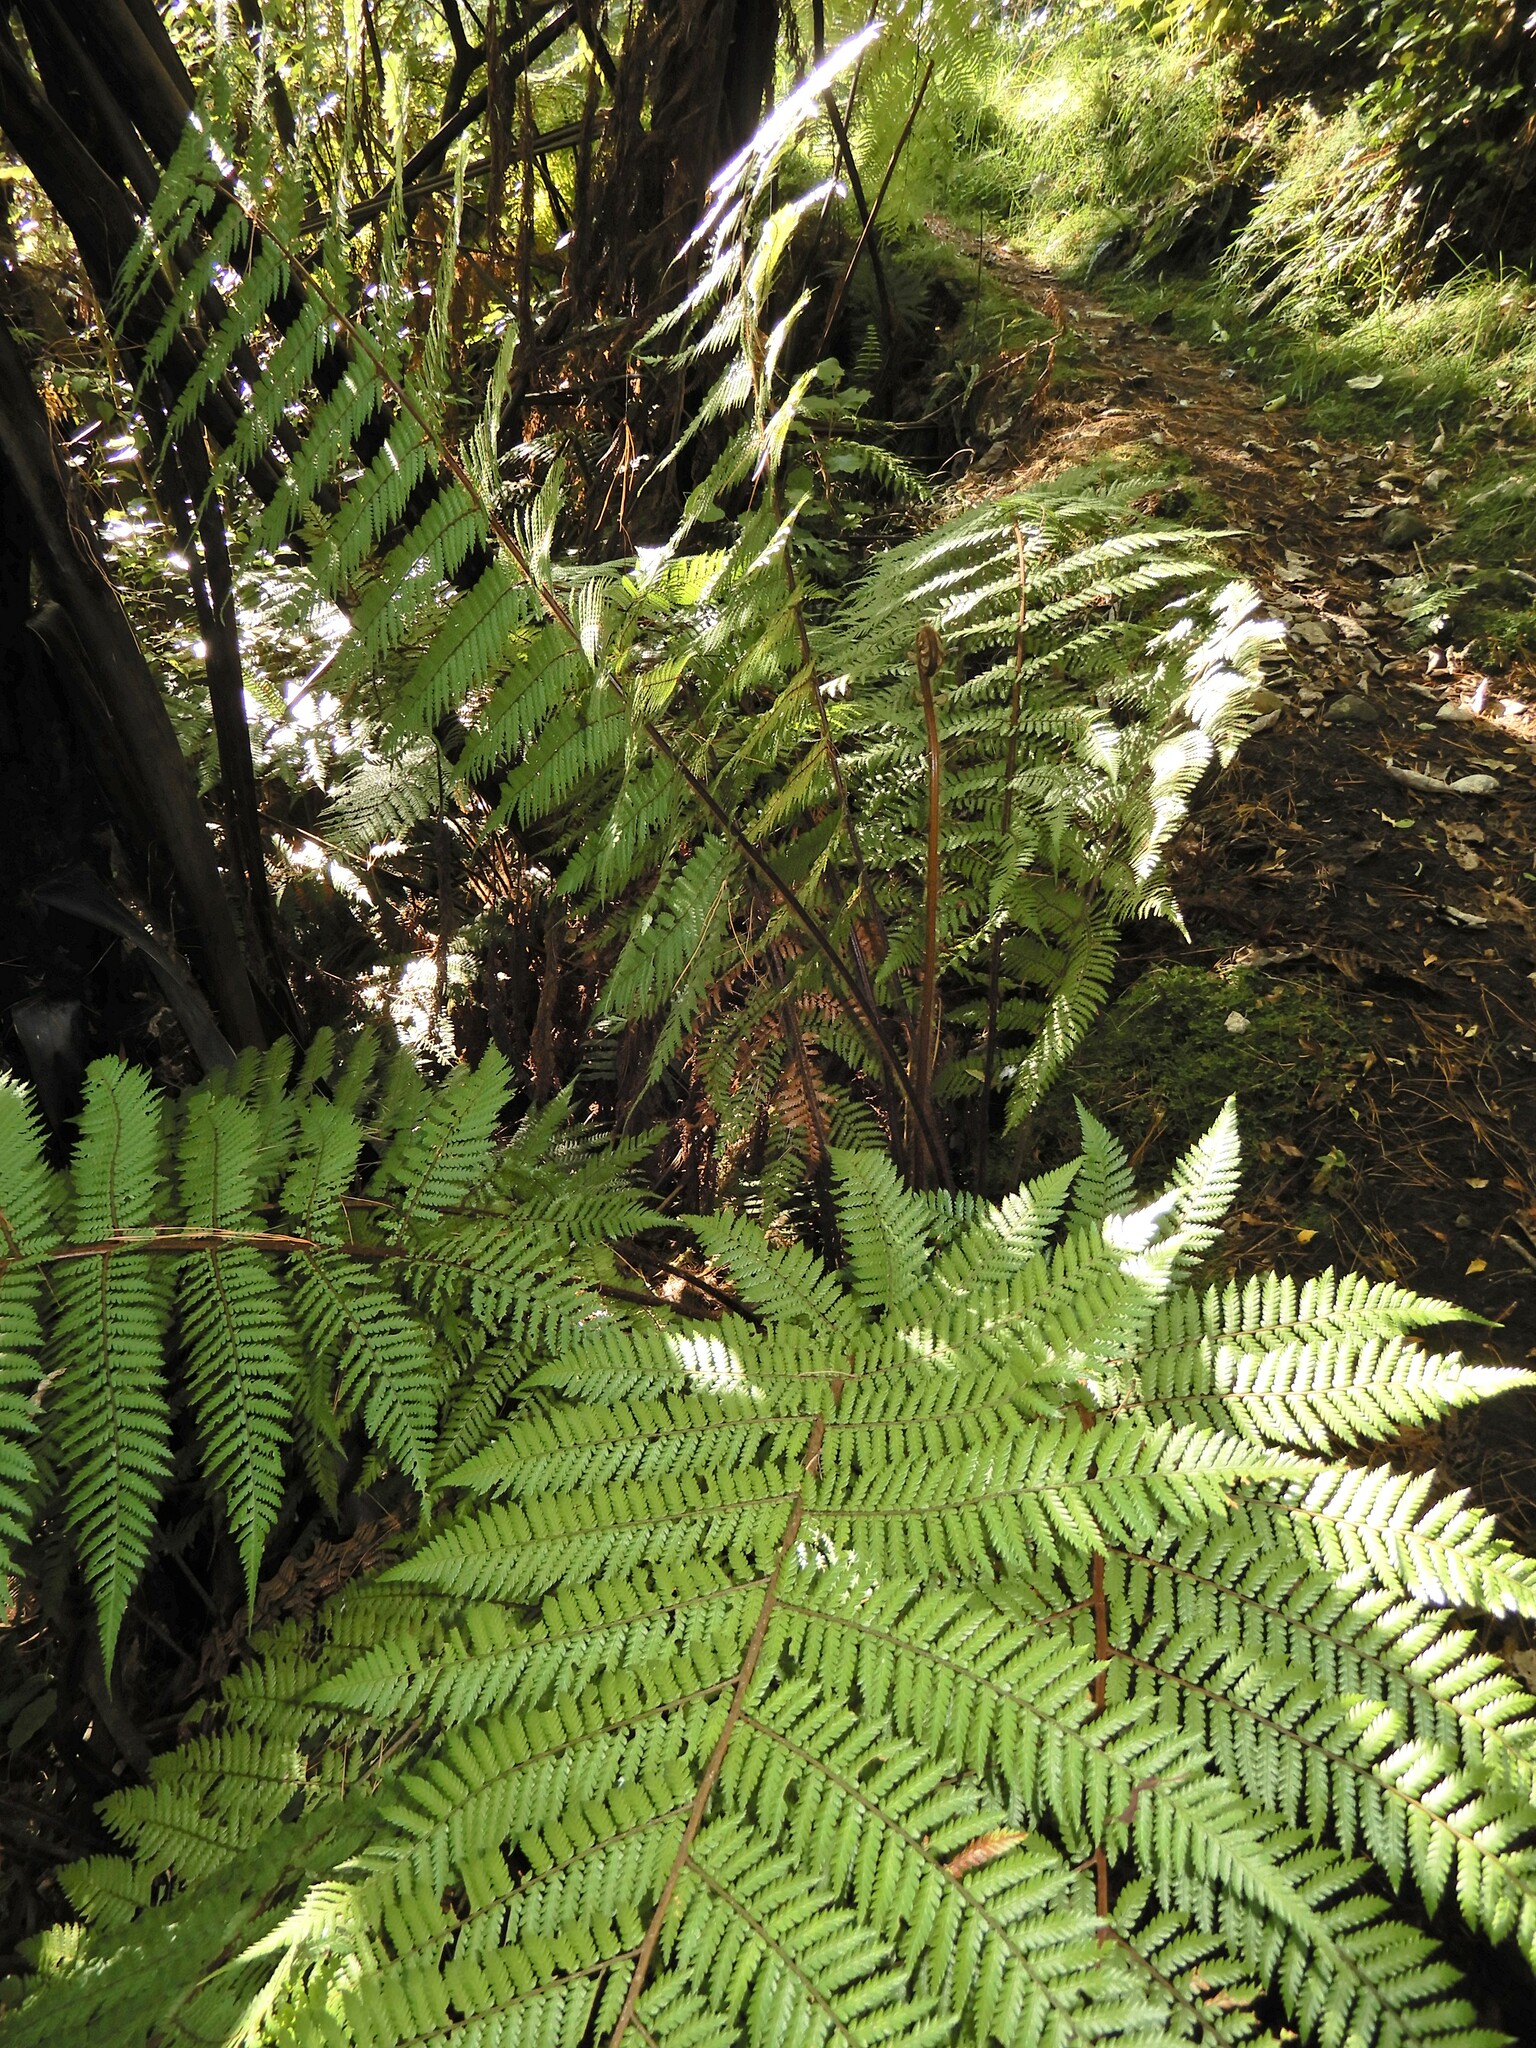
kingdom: Plantae
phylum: Tracheophyta
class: Polypodiopsida
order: Cyatheales
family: Cyatheaceae
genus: Alsophila
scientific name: Alsophila colensoi
